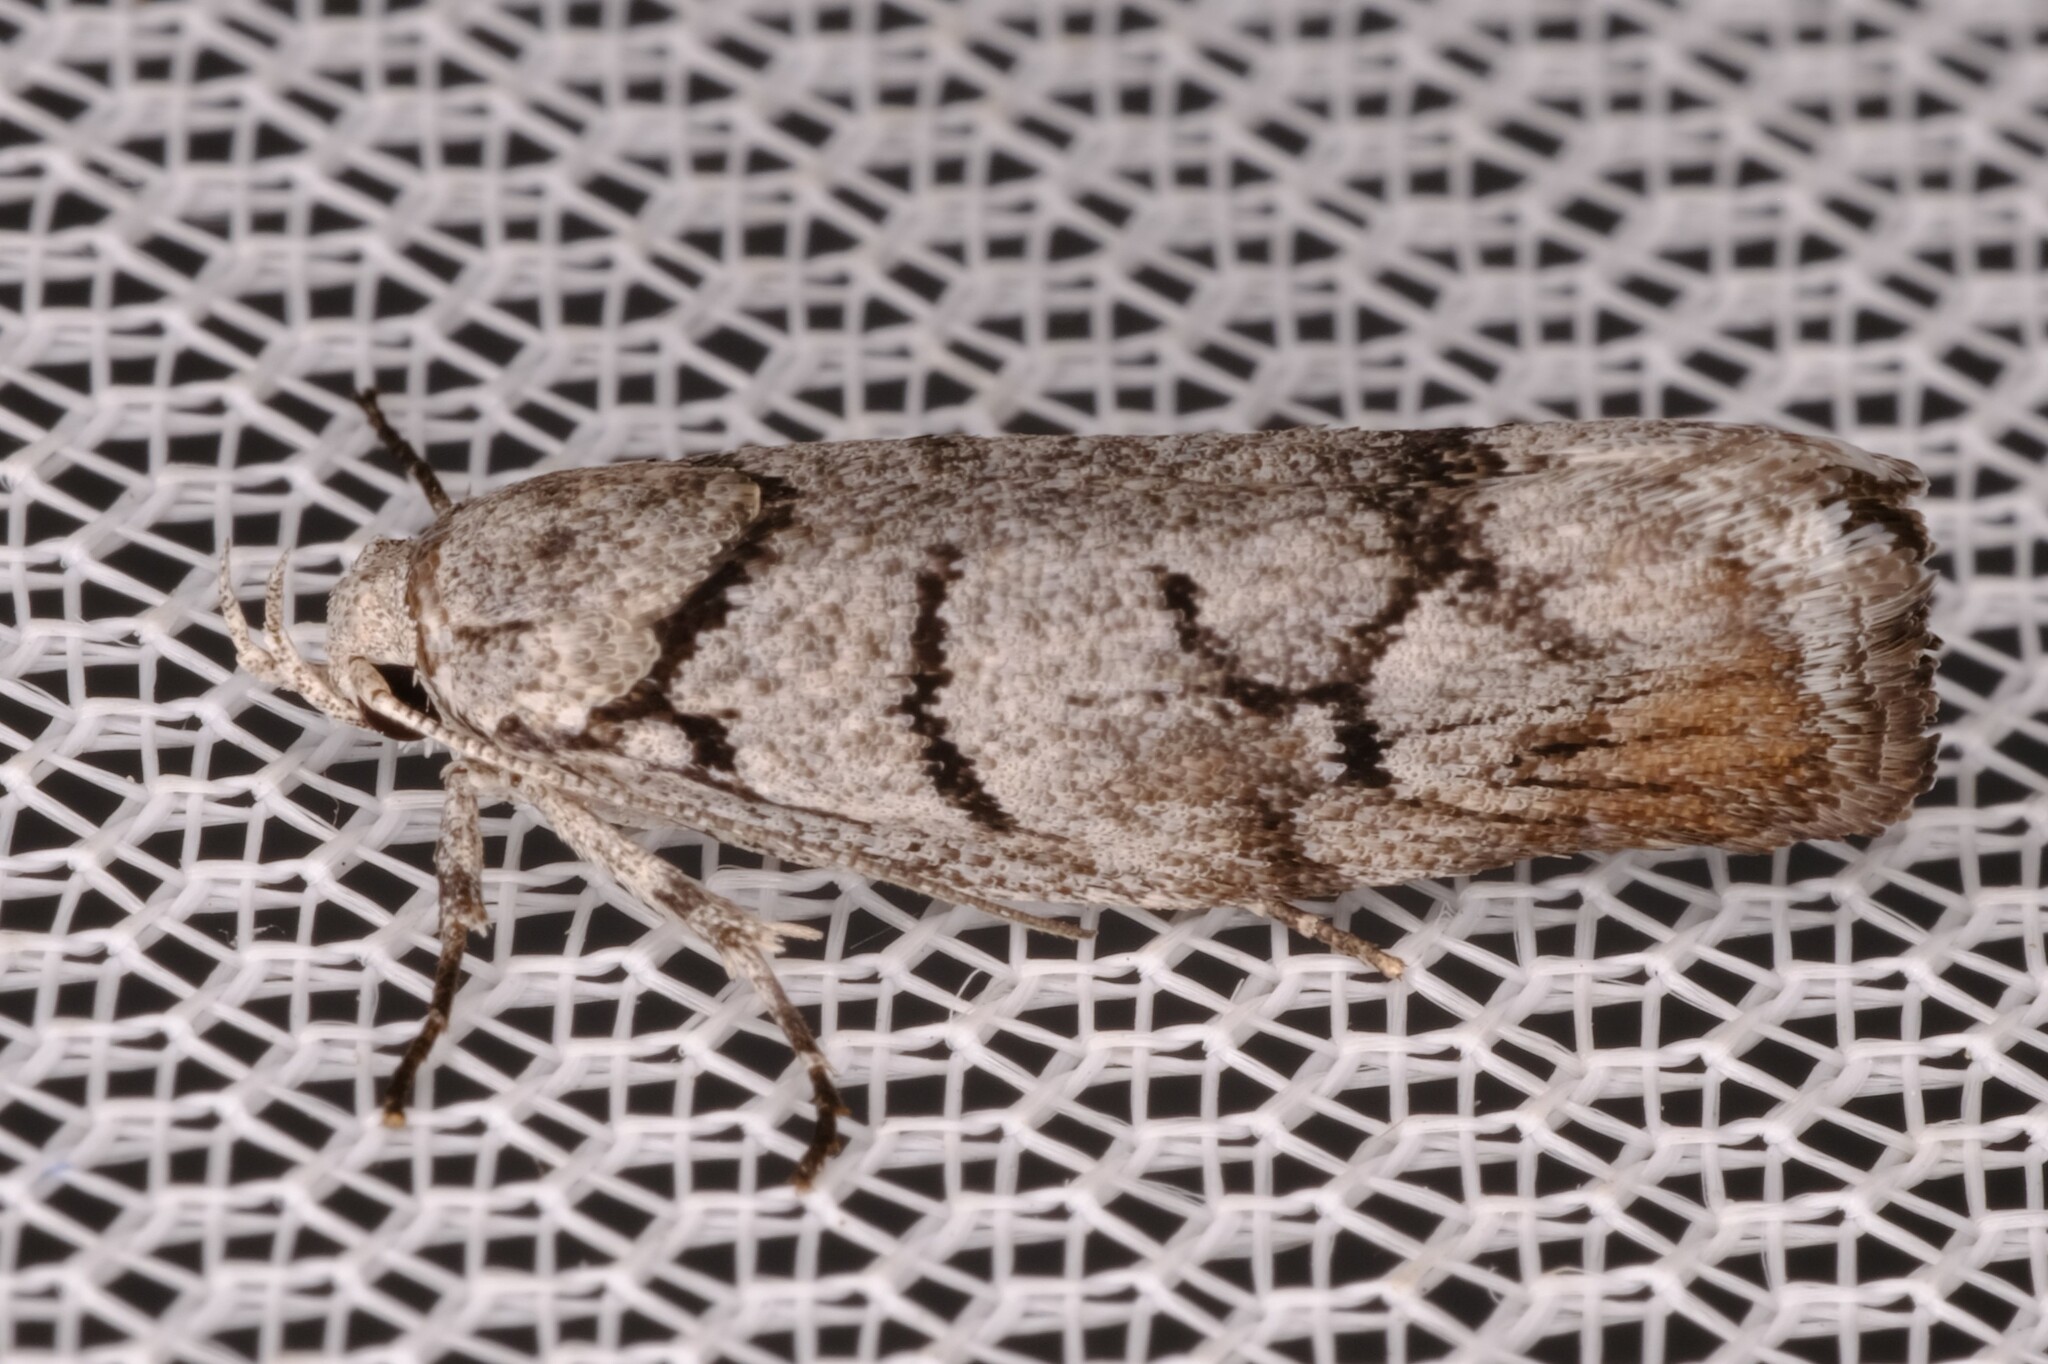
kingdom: Animalia
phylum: Arthropoda
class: Insecta
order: Lepidoptera
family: Xyloryctidae
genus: Lichenaula
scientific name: Lichenaula onychodes
